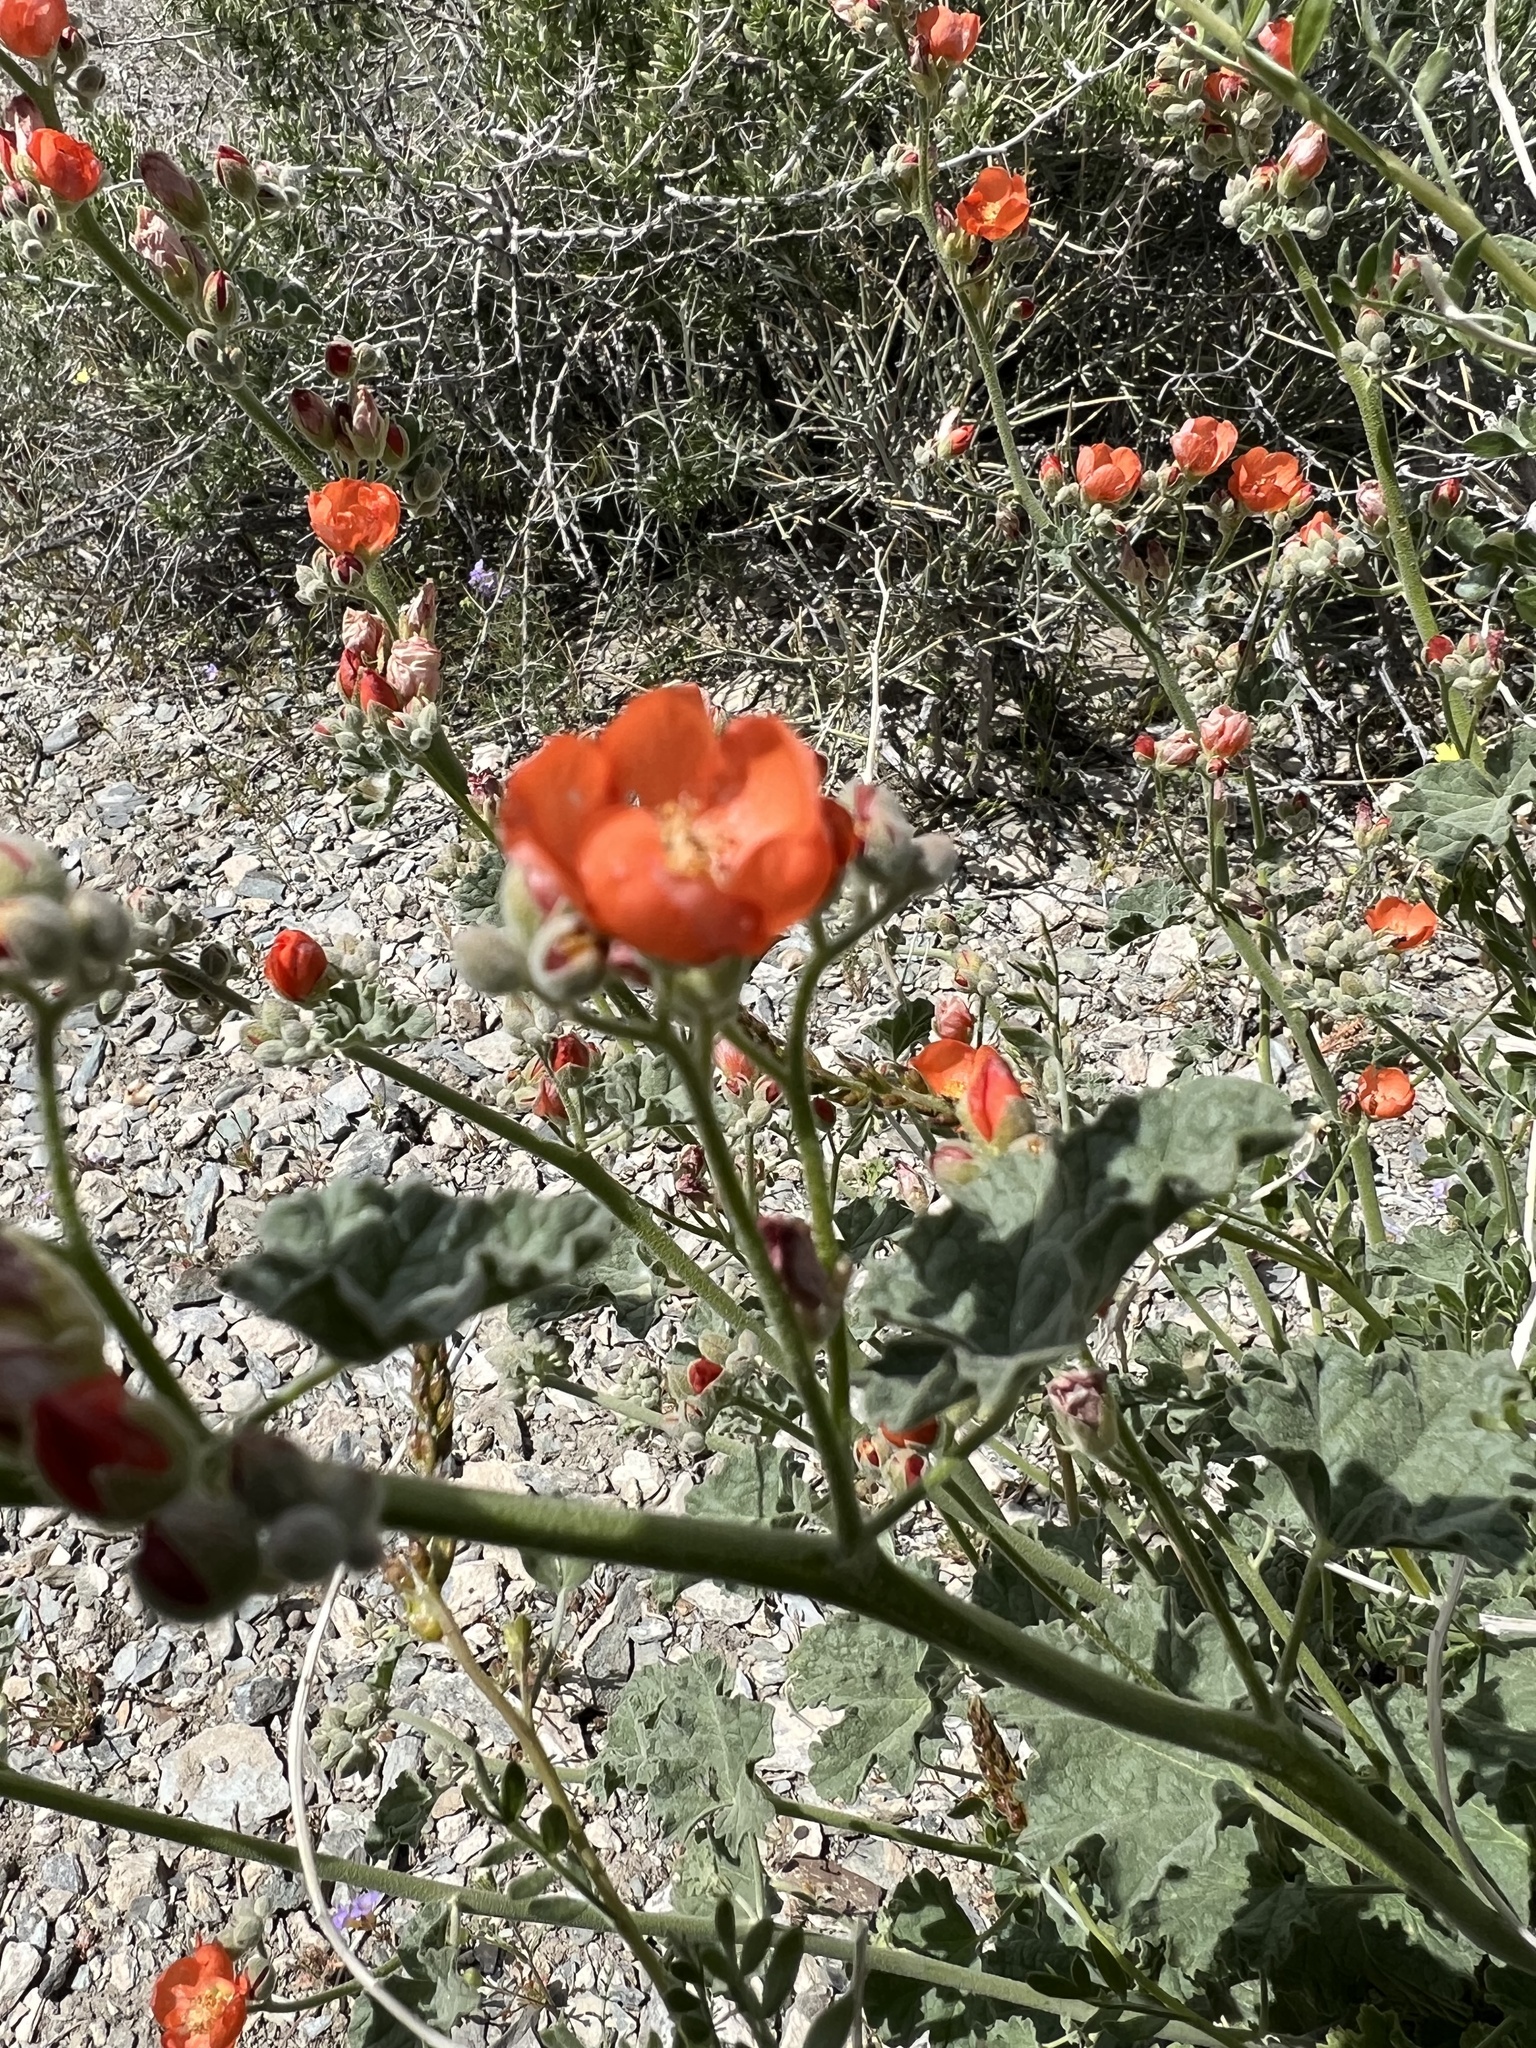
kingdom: Plantae
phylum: Tracheophyta
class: Magnoliopsida
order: Malvales
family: Malvaceae
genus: Sphaeralcea
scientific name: Sphaeralcea ambigua
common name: Apricot globe-mallow
